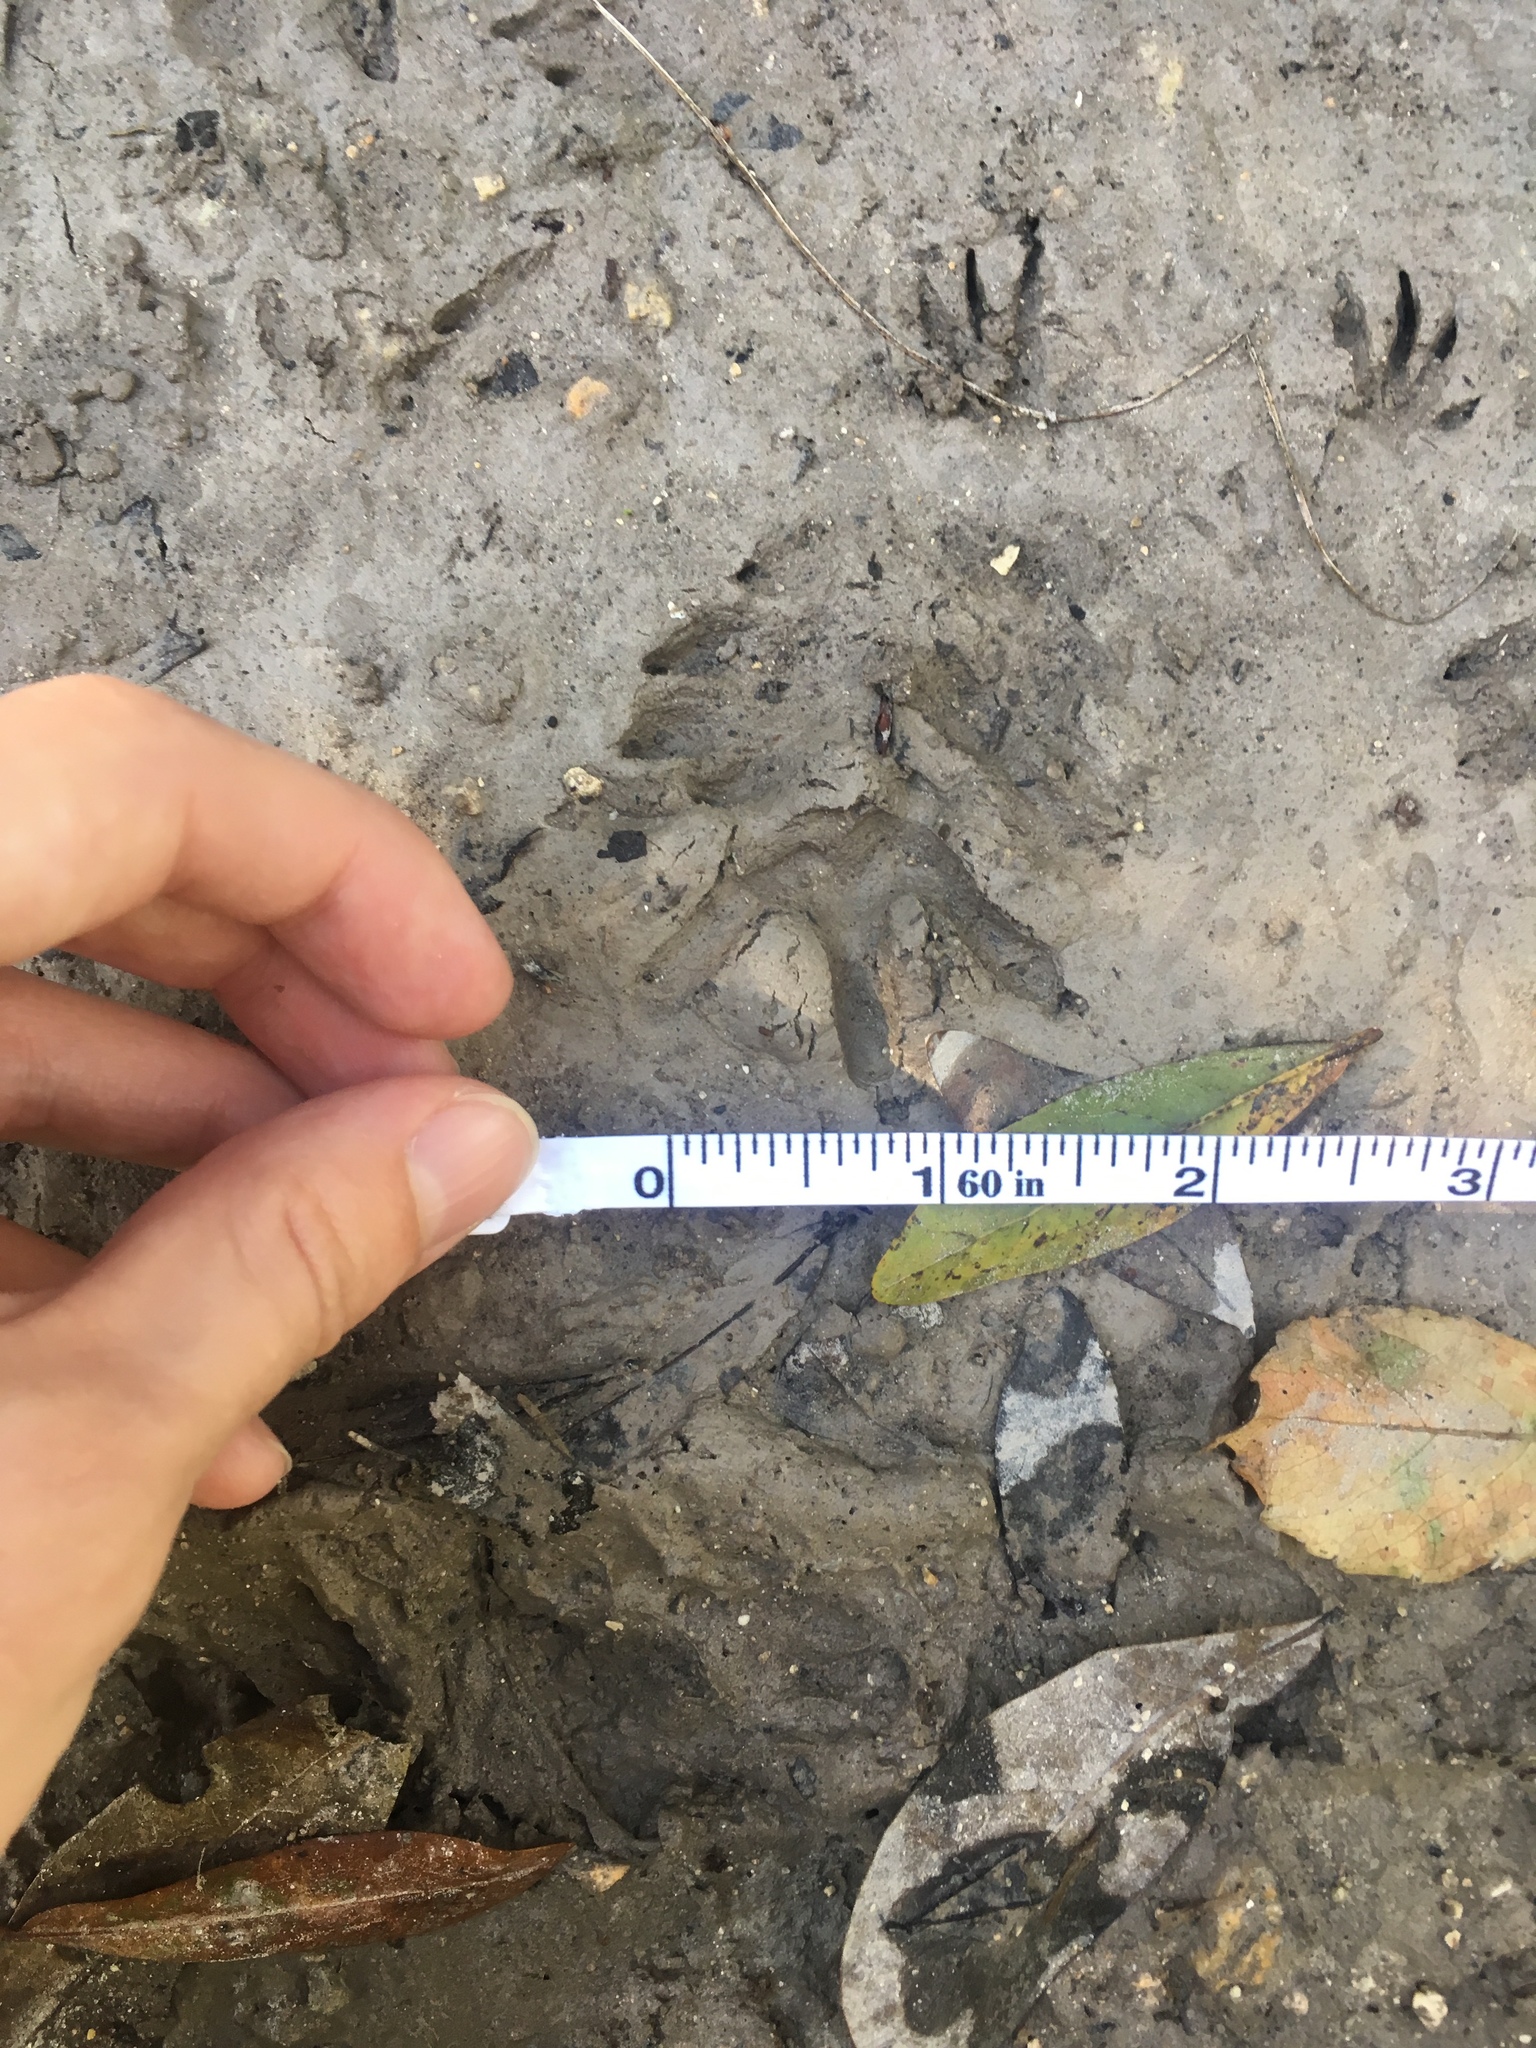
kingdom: Animalia
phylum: Chordata
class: Mammalia
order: Didelphimorphia
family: Didelphidae
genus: Didelphis
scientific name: Didelphis virginiana
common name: Virginia opossum
